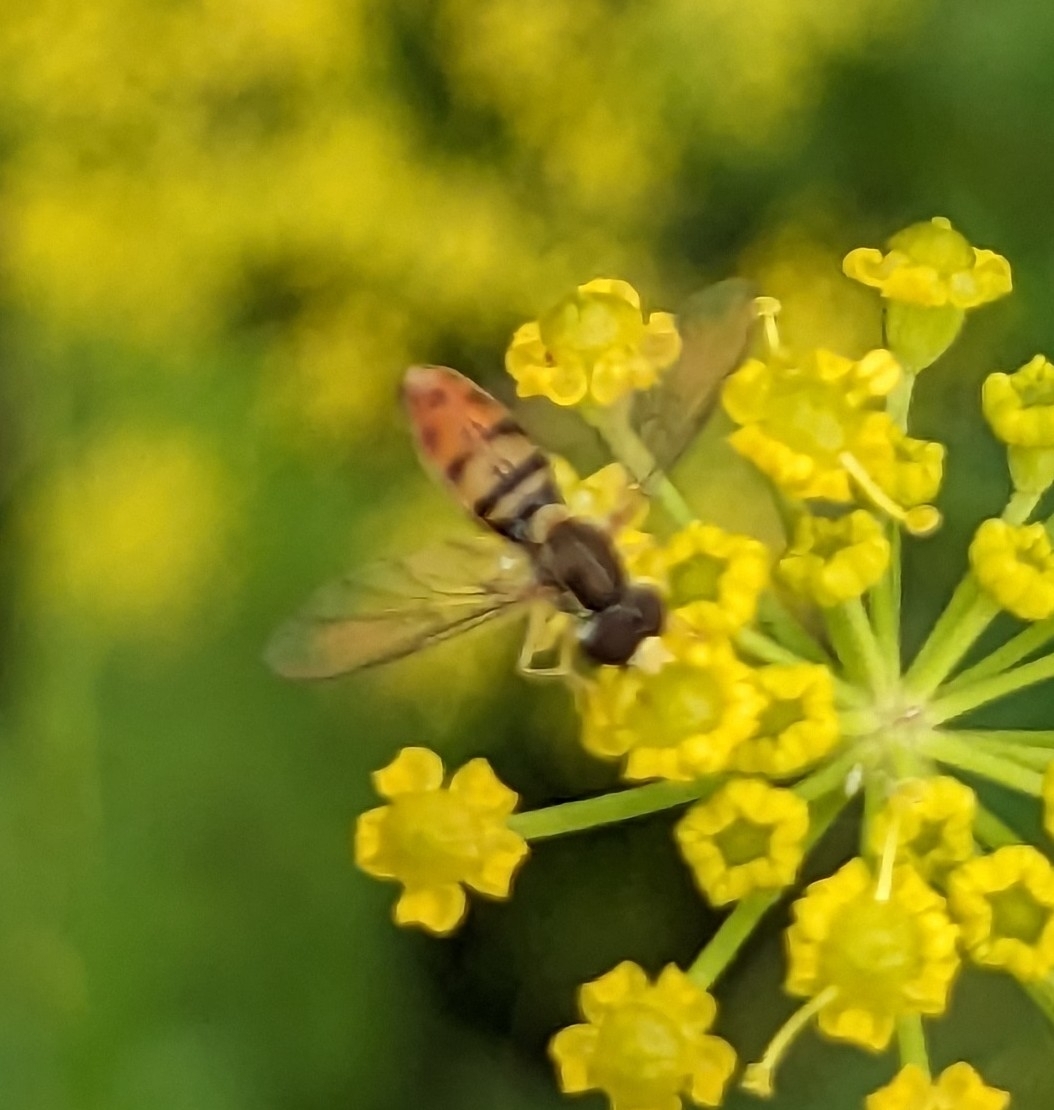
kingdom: Animalia
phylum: Arthropoda
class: Insecta
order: Diptera
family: Syrphidae
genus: Toxomerus
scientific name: Toxomerus marginatus
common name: Syrphid fly
